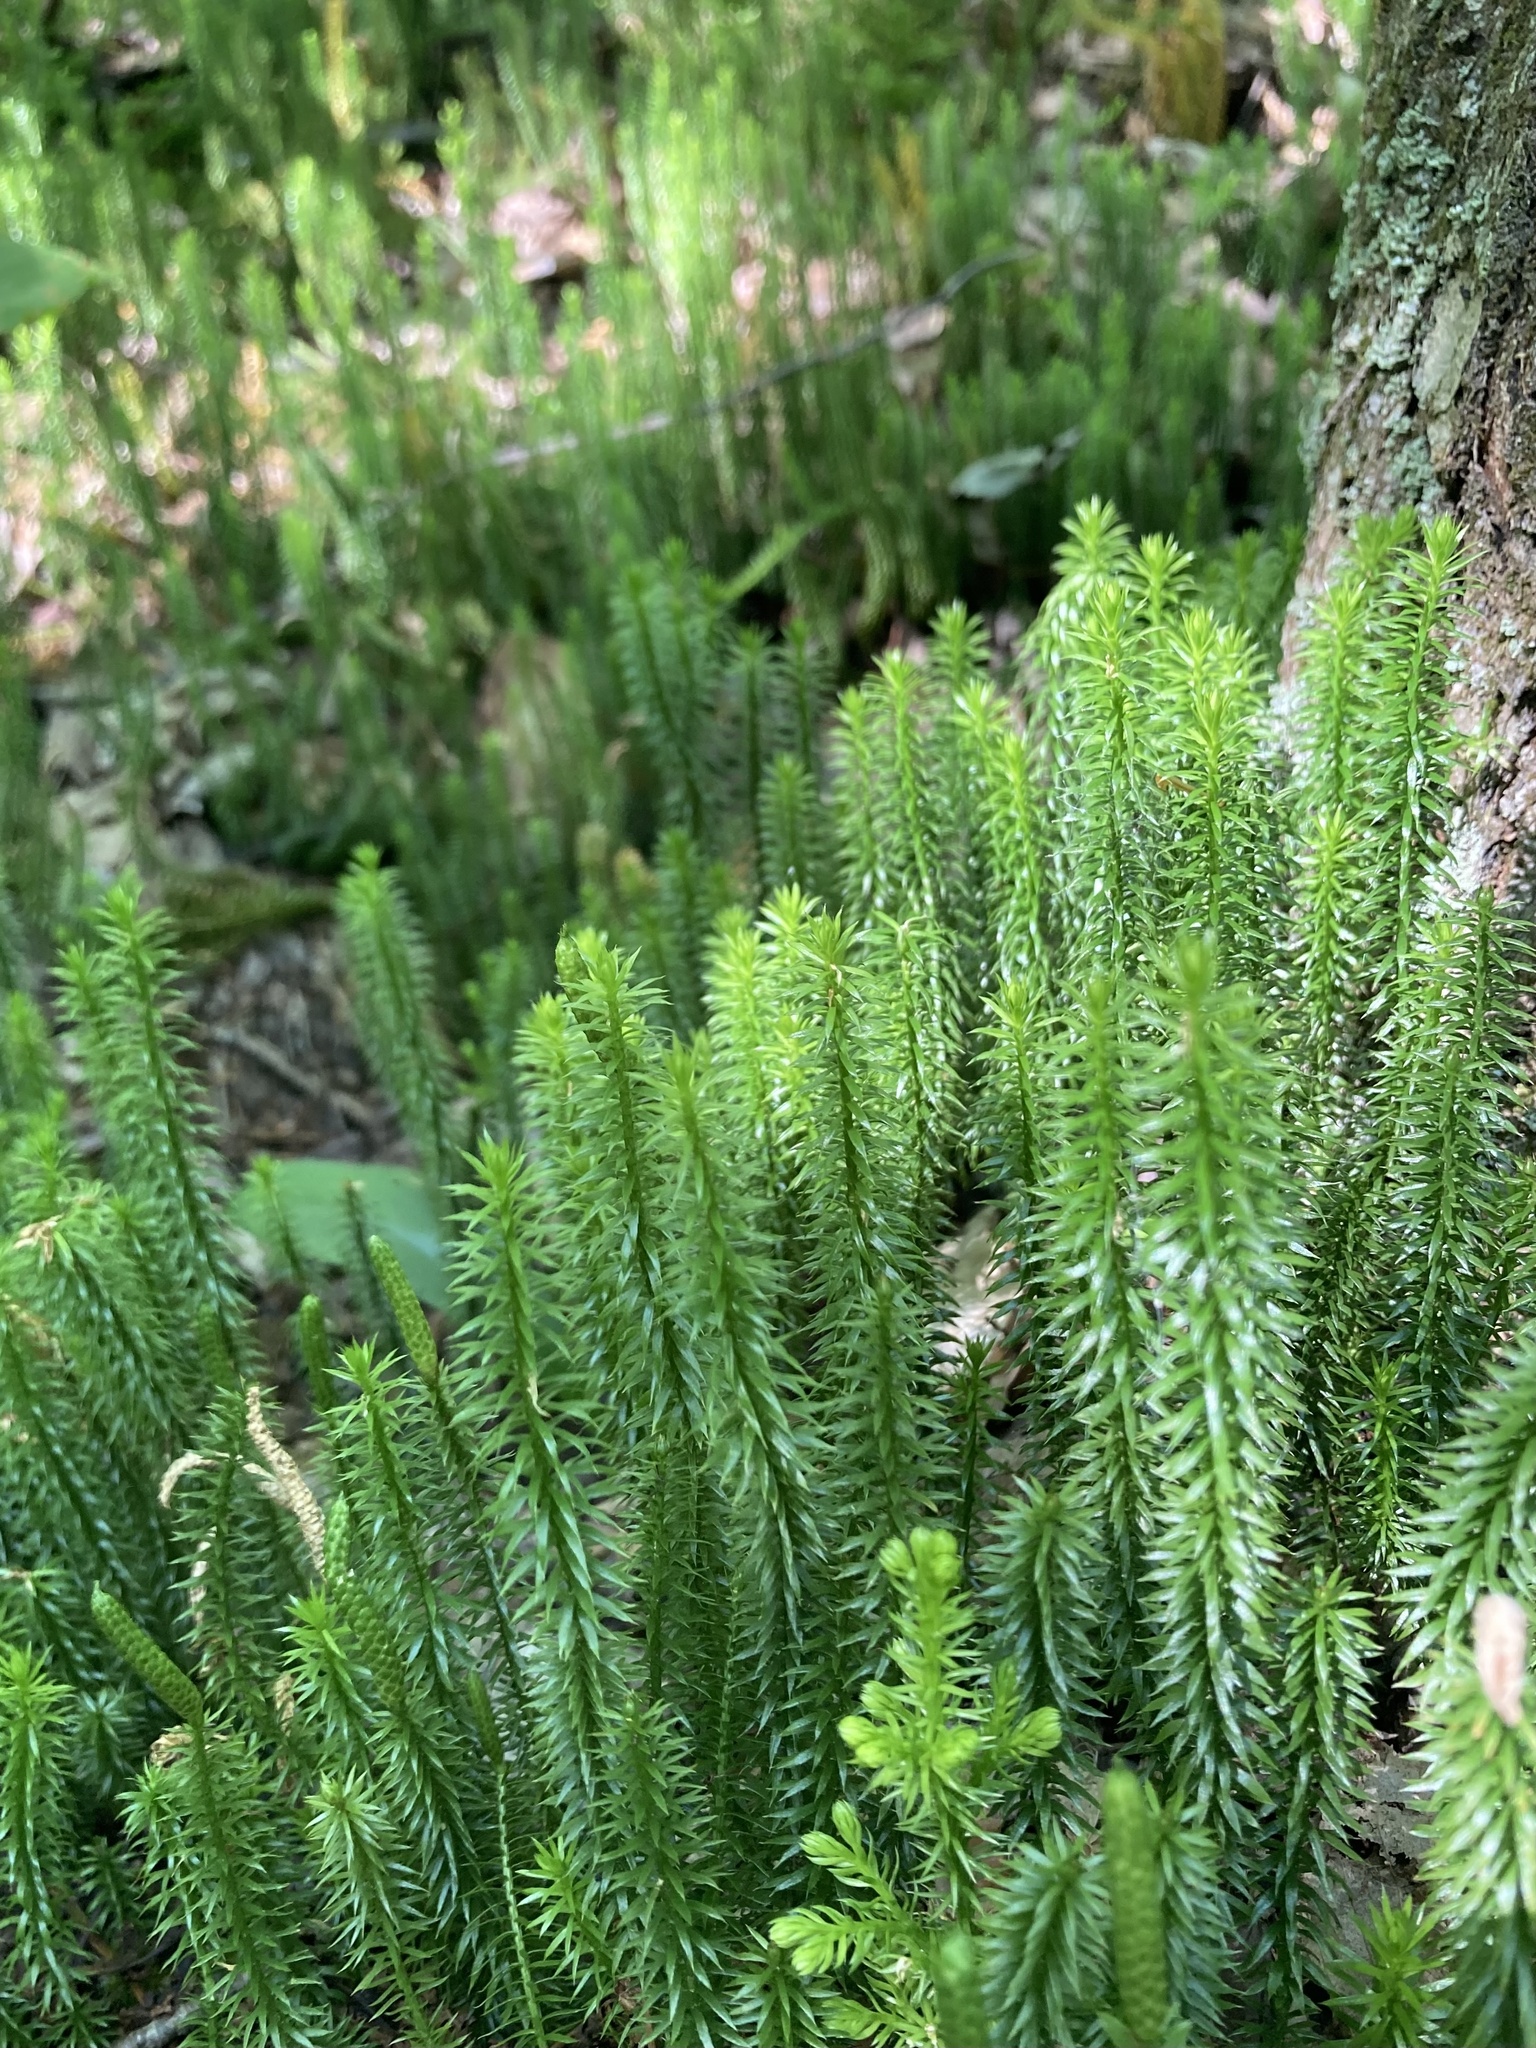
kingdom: Plantae
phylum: Tracheophyta
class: Lycopodiopsida
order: Lycopodiales
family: Lycopodiaceae
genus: Spinulum
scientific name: Spinulum annotinum
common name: Interrupted club-moss
